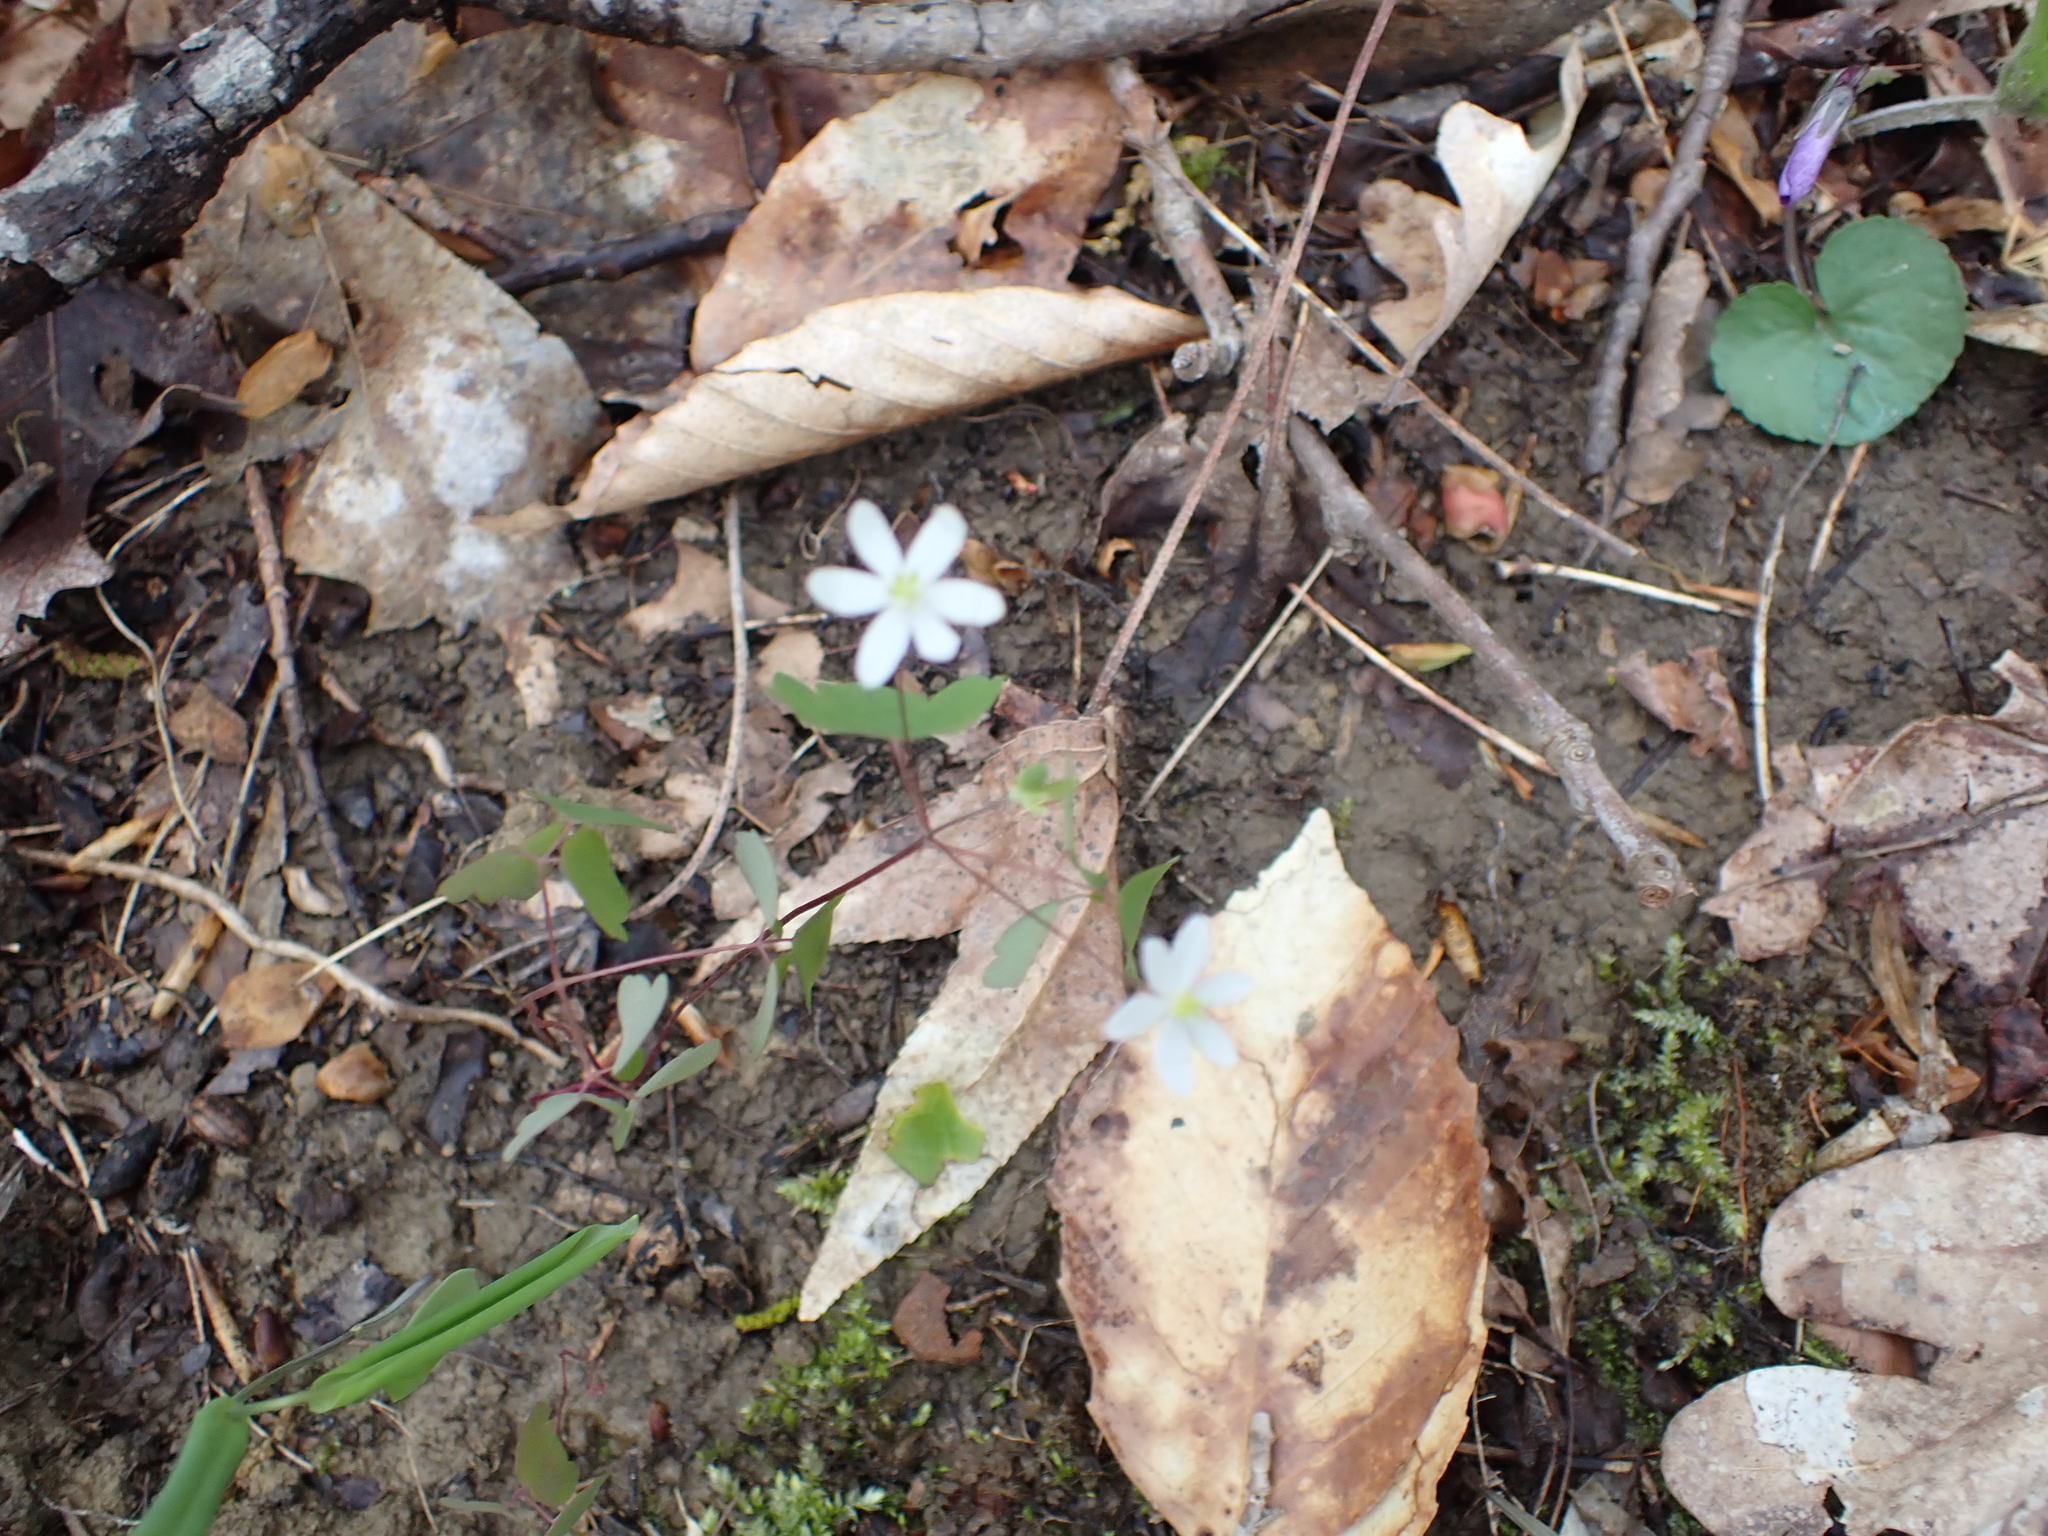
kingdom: Plantae
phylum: Tracheophyta
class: Magnoliopsida
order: Ranunculales
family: Ranunculaceae
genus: Thalictrum
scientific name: Thalictrum thalictroides
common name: Rue-anemone
